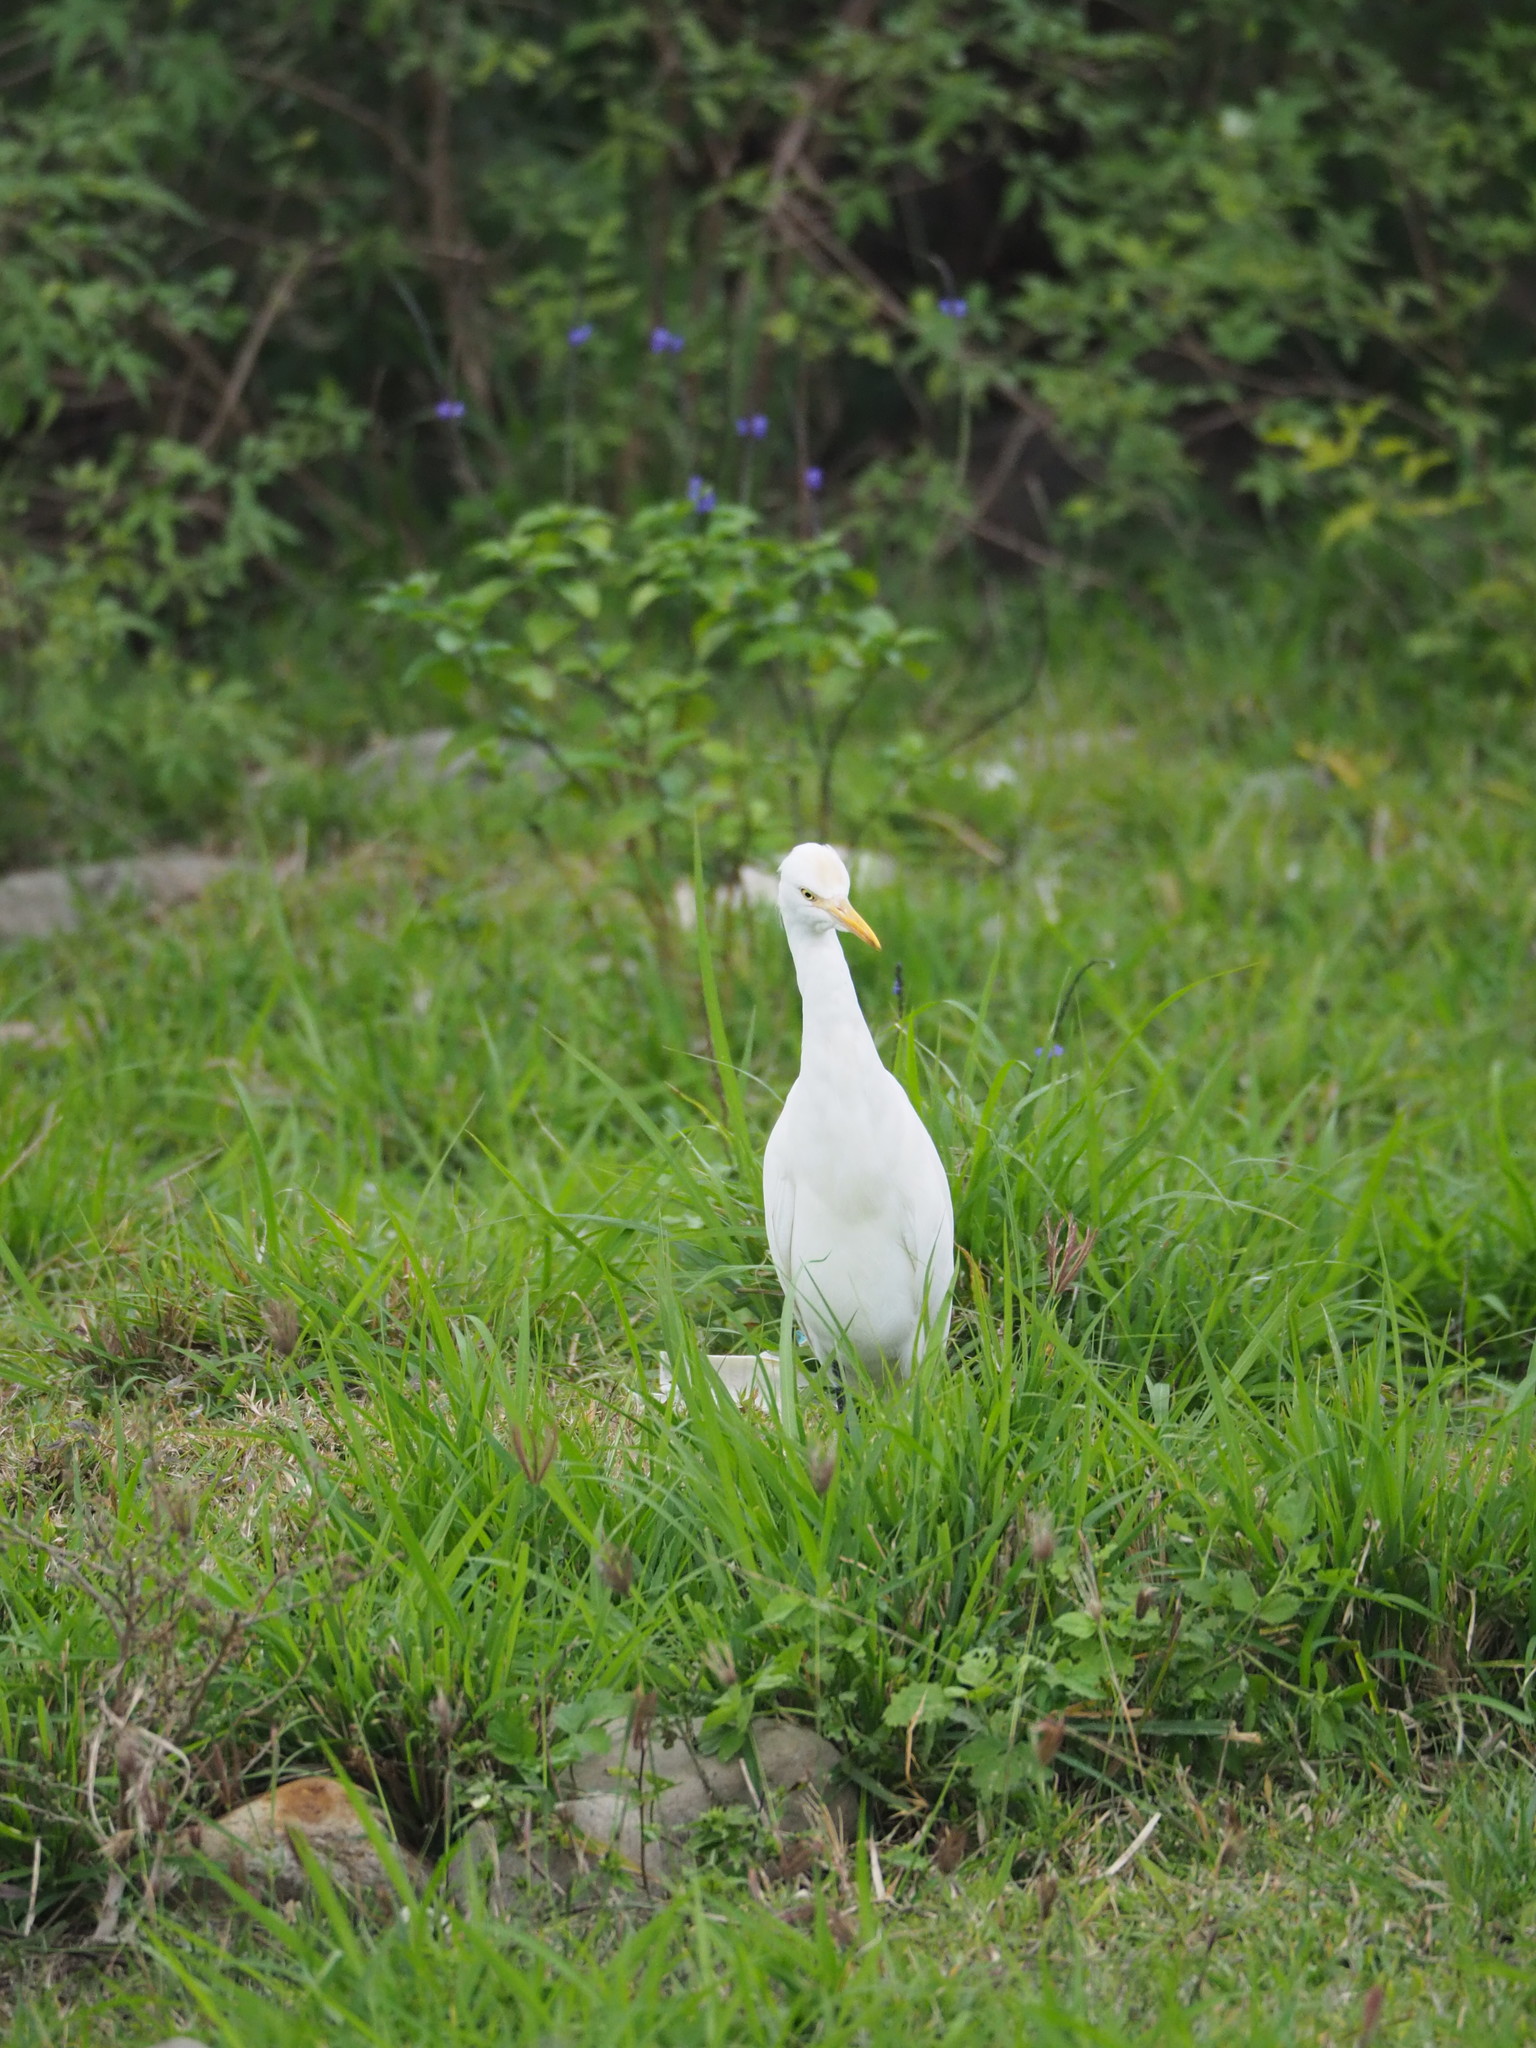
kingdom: Animalia
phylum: Chordata
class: Aves
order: Pelecaniformes
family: Ardeidae
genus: Bubulcus
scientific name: Bubulcus coromandus
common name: Eastern cattle egret
